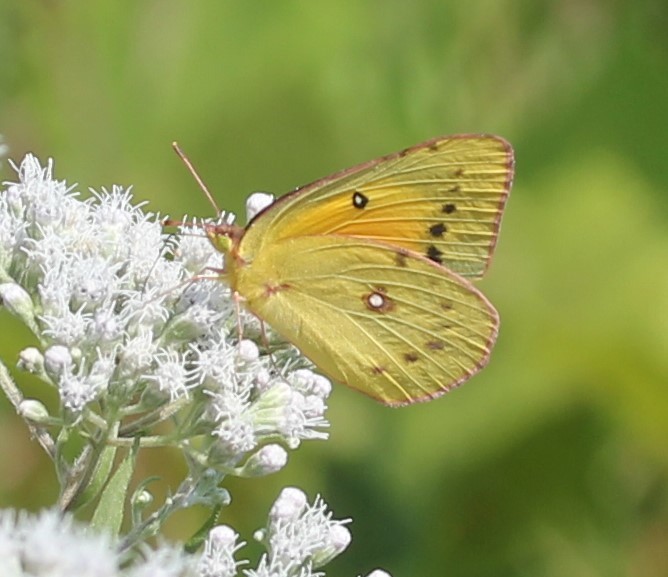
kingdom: Animalia
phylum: Arthropoda
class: Insecta
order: Lepidoptera
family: Pieridae
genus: Colias
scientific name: Colias eurytheme
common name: Alfalfa butterfly
